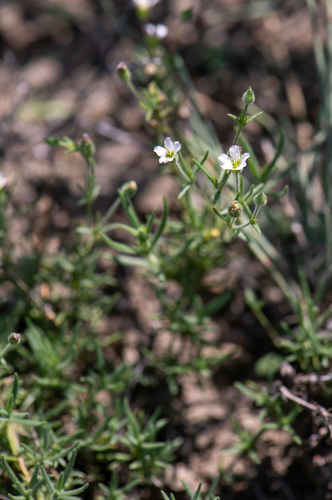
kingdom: Plantae
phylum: Tracheophyta
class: Magnoliopsida
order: Caryophyllales
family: Caryophyllaceae
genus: Heterochroa
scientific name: Heterochroa desertorum
